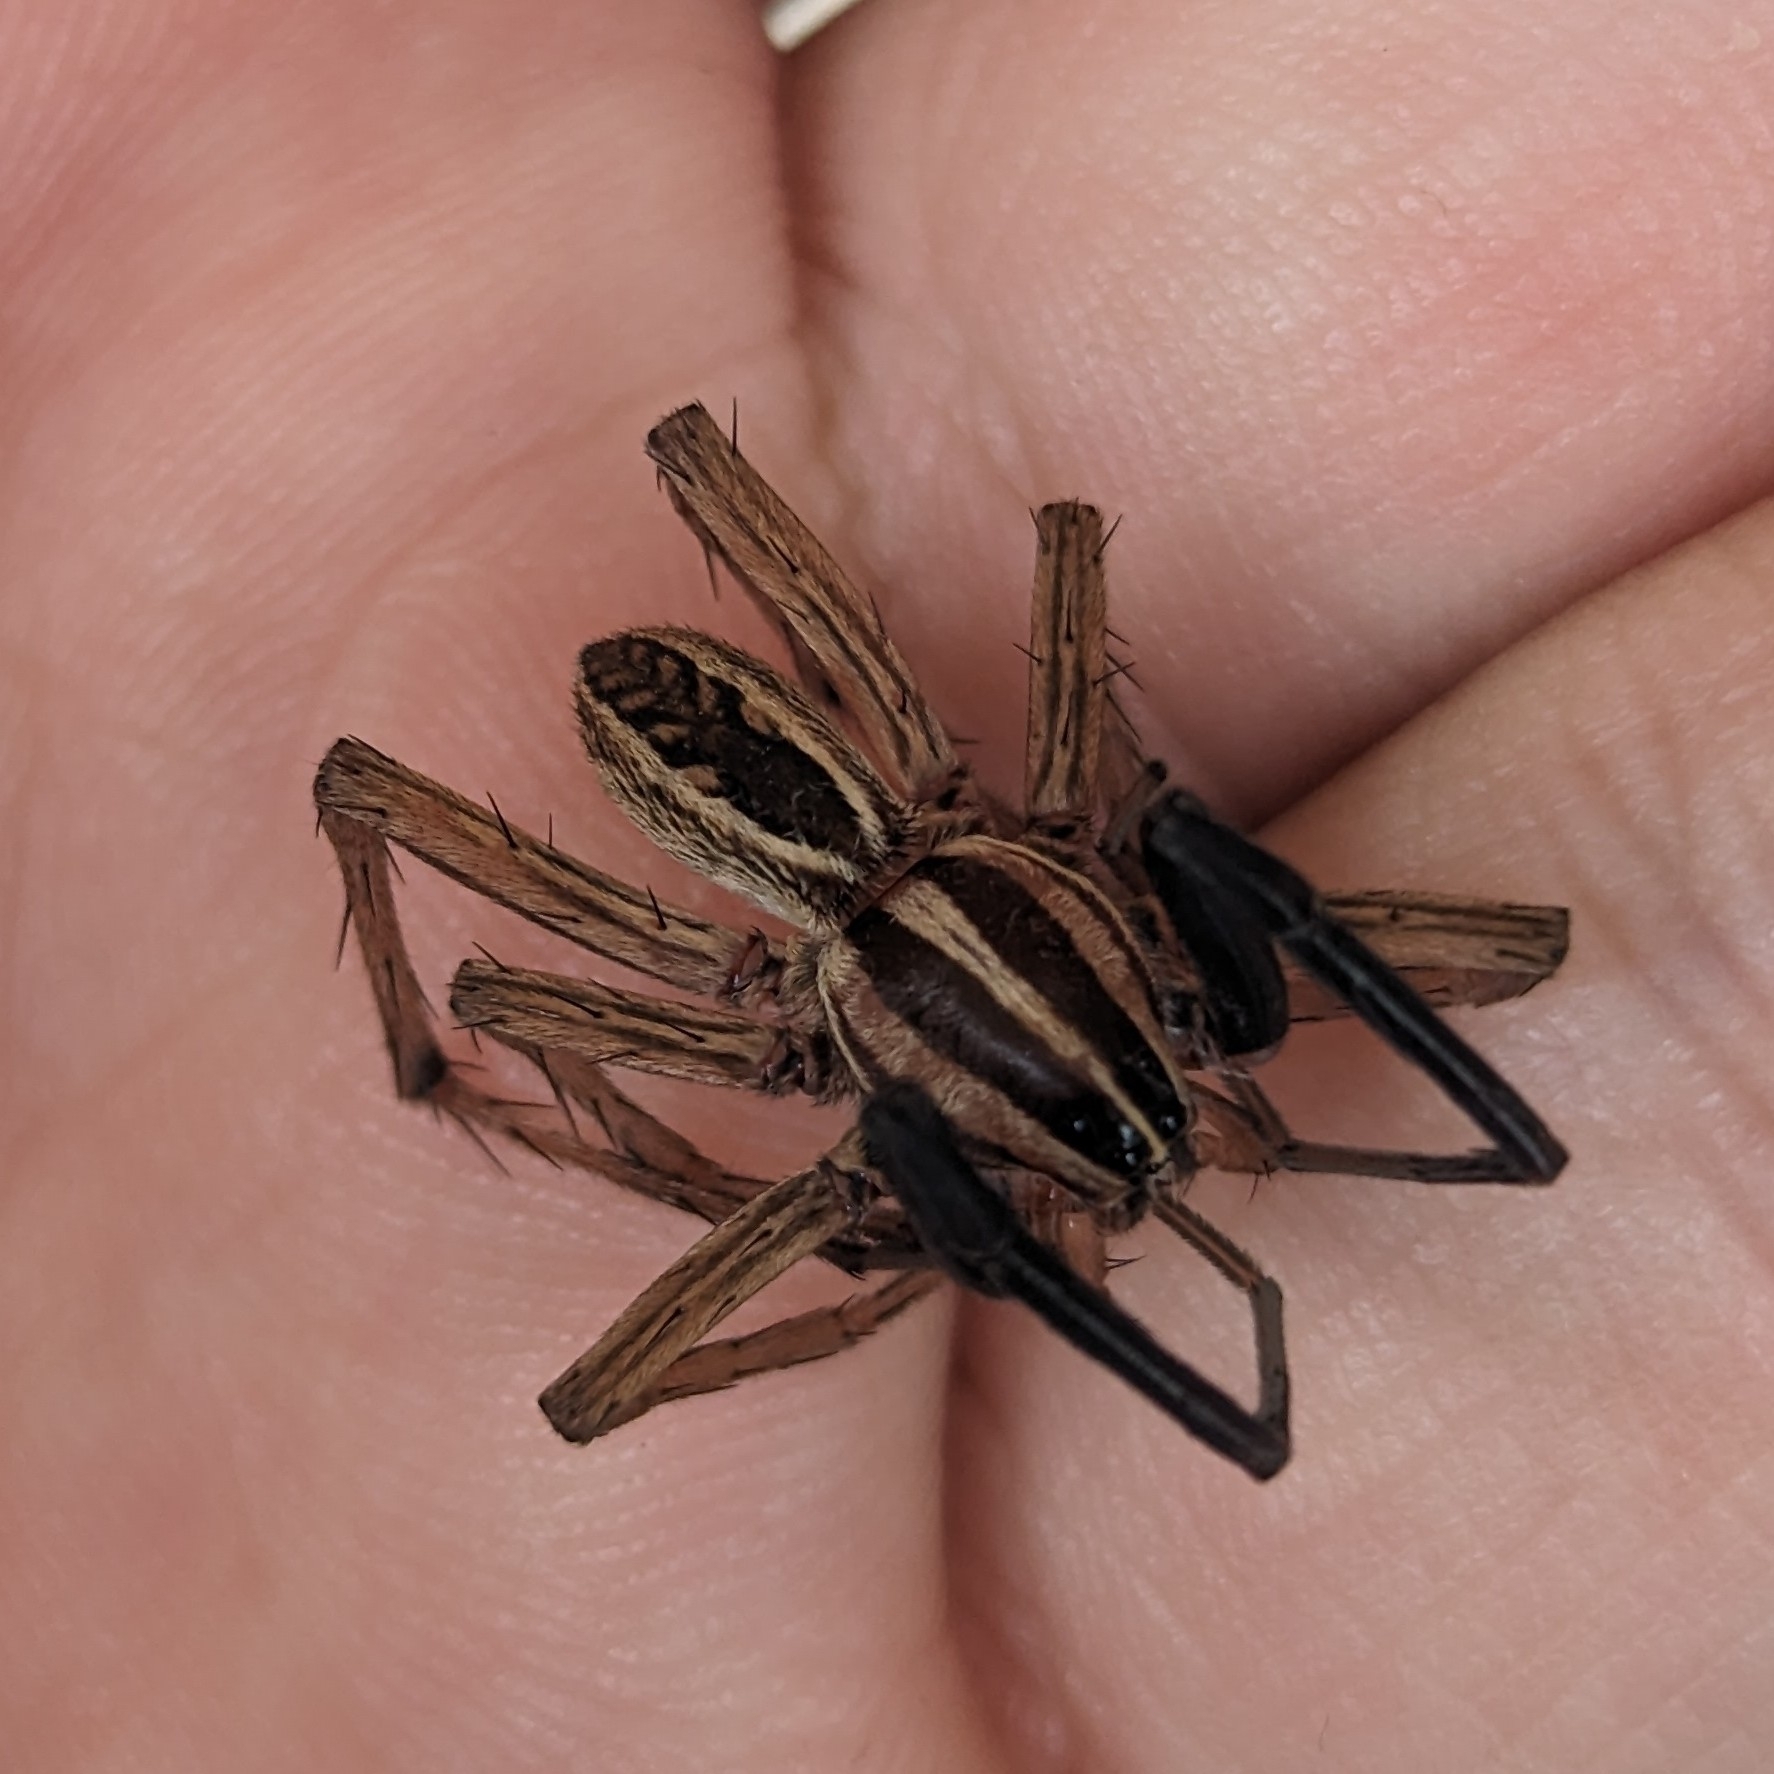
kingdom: Animalia
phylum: Arthropoda
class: Arachnida
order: Araneae
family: Lycosidae
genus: Rabidosa
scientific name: Rabidosa rabida
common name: Rabid wolf spider
